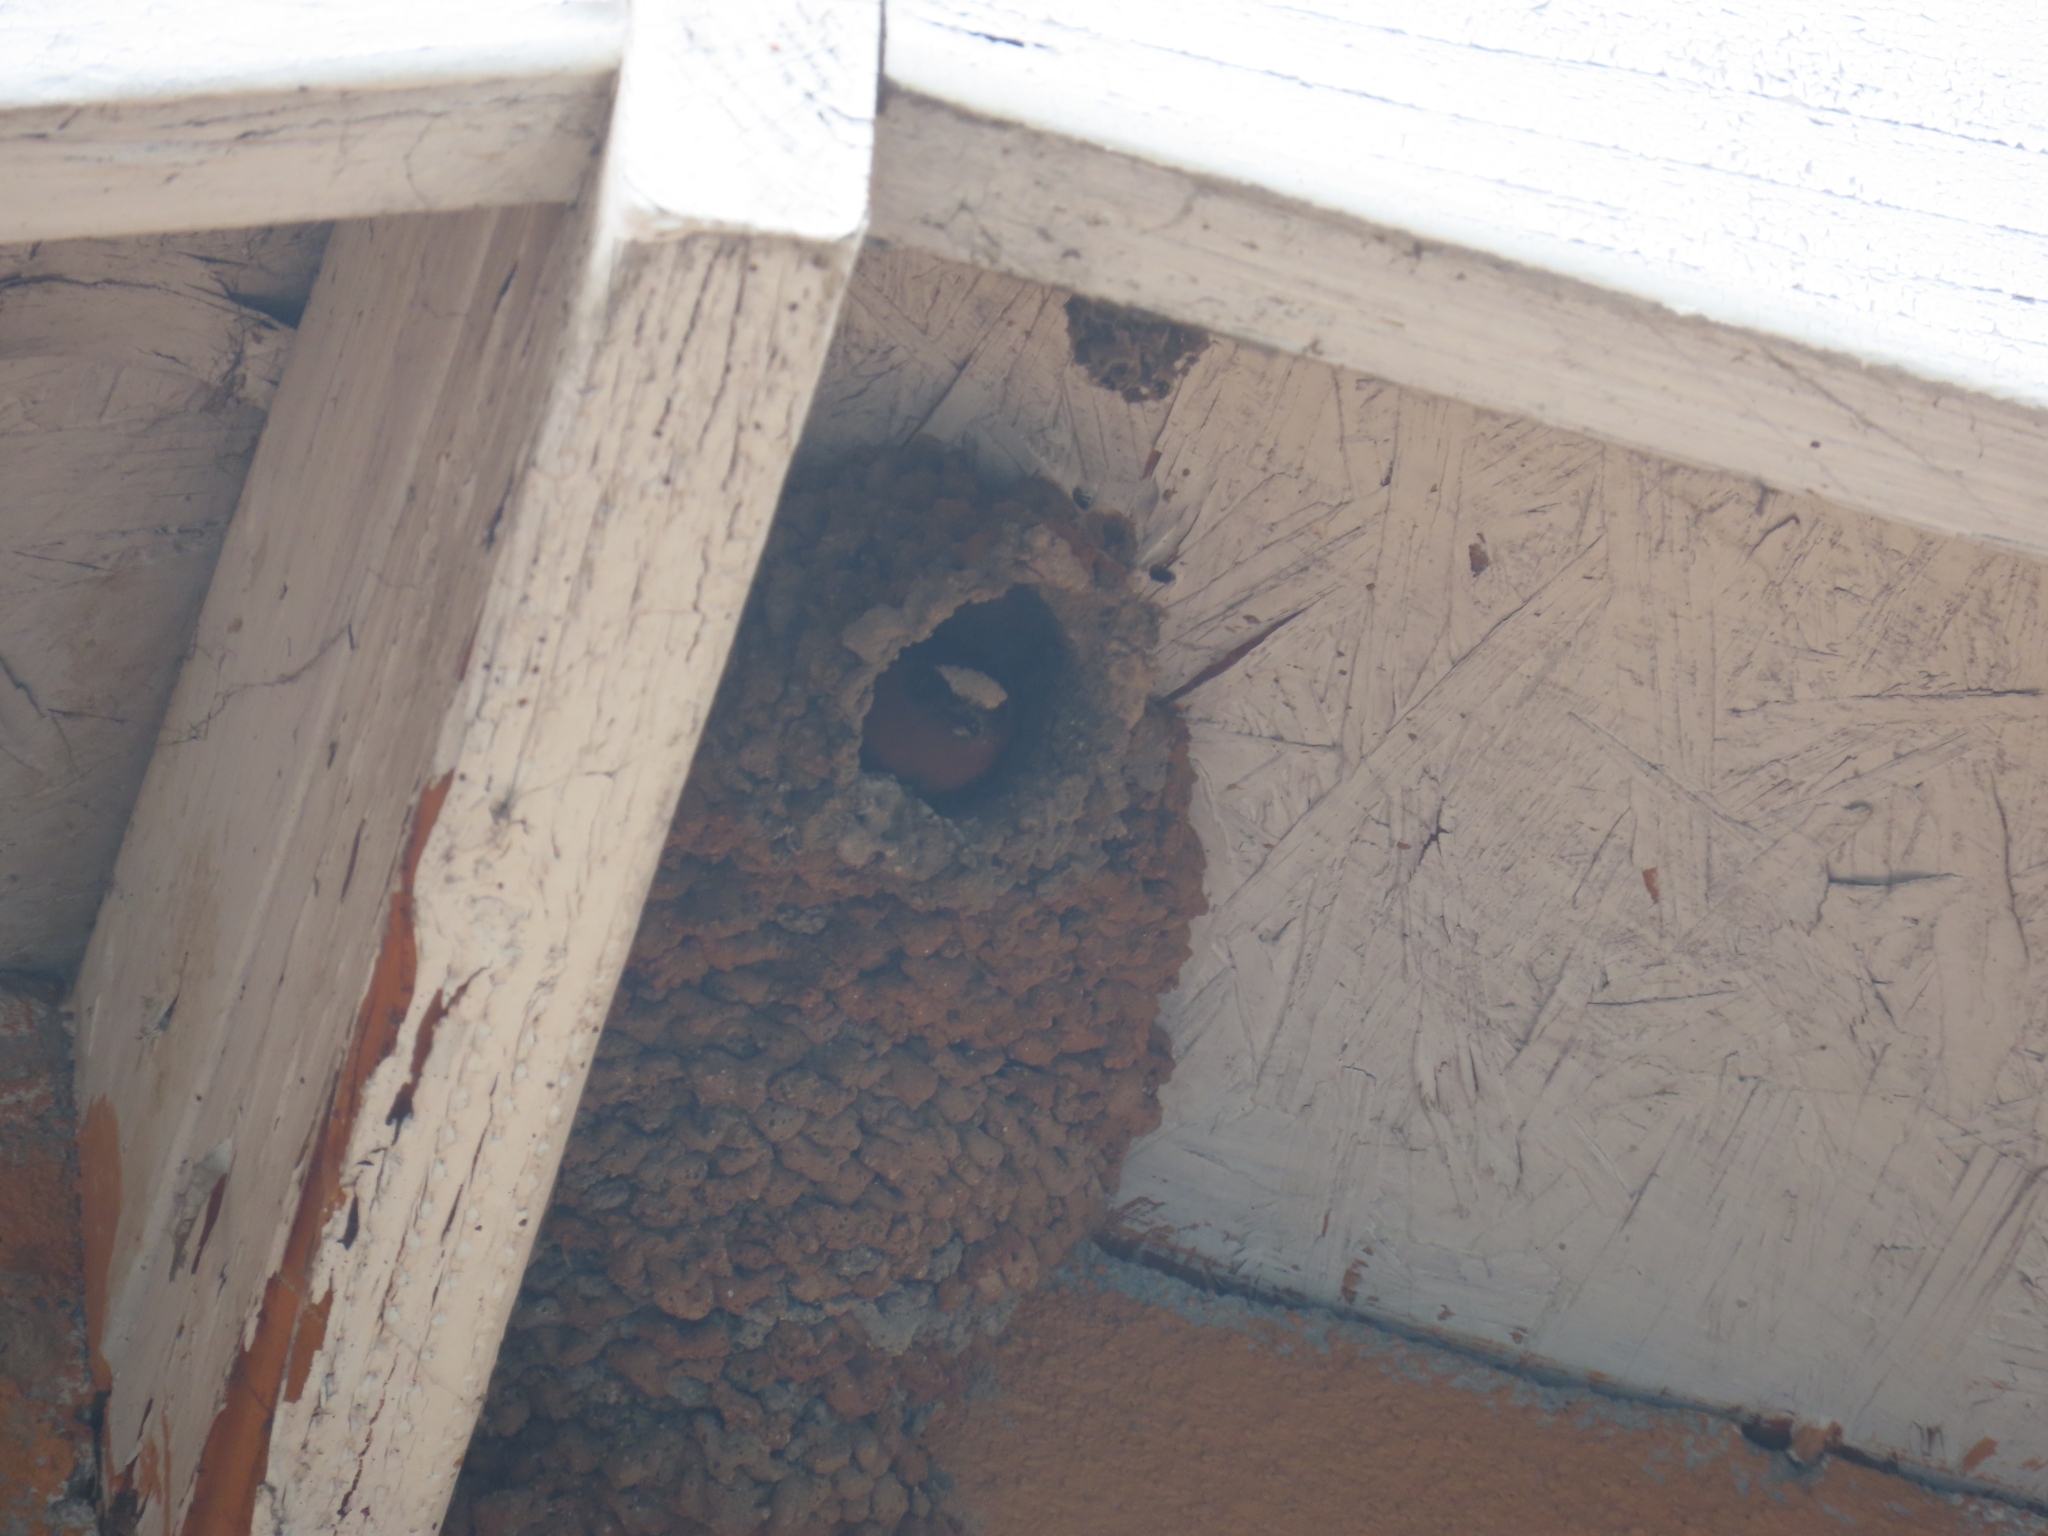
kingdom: Animalia
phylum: Chordata
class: Aves
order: Passeriformes
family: Hirundinidae
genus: Petrochelidon
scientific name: Petrochelidon pyrrhonota
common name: American cliff swallow
